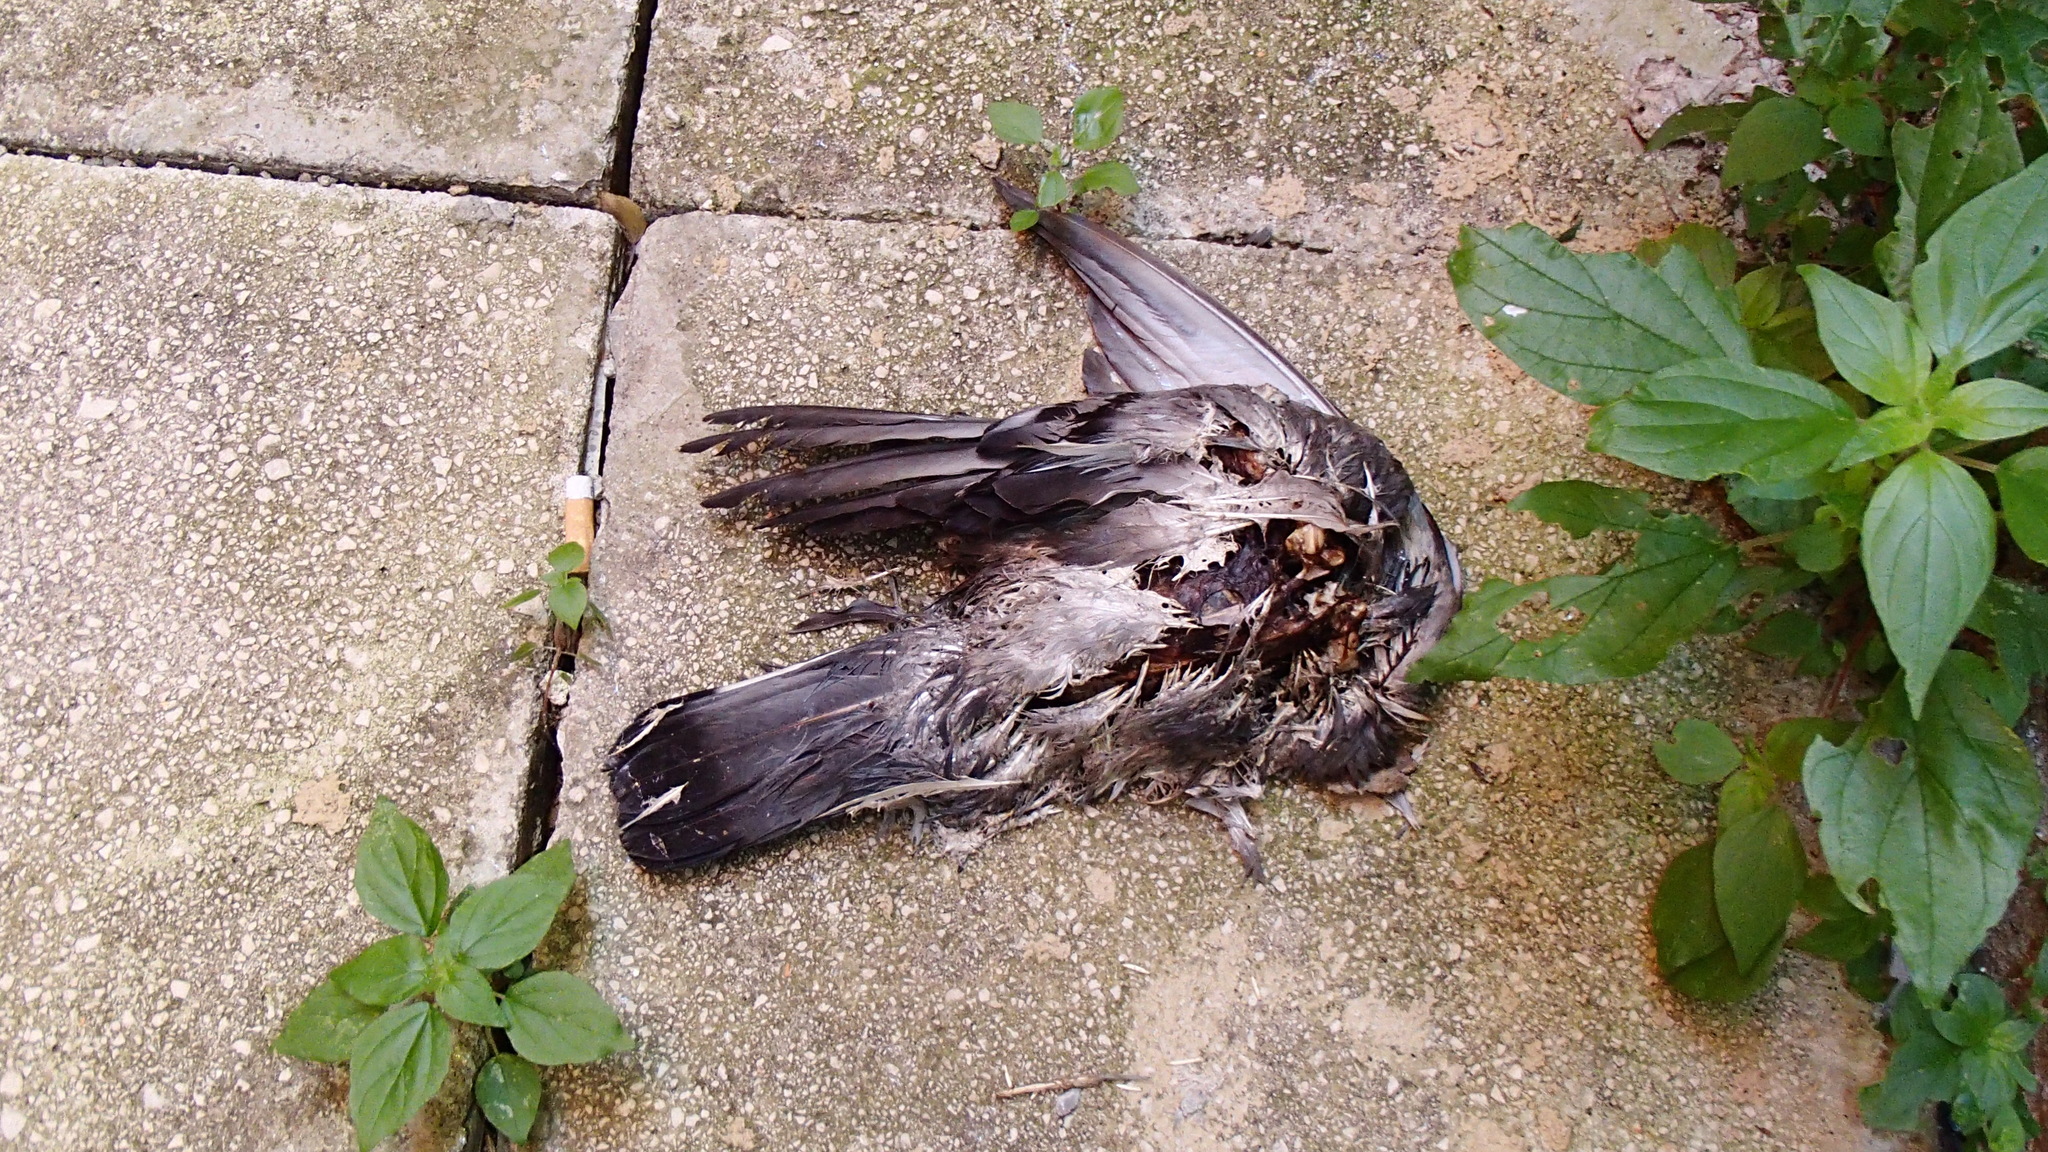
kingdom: Animalia
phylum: Chordata
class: Aves
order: Columbiformes
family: Columbidae
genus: Columba
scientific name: Columba livia
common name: Rock pigeon
